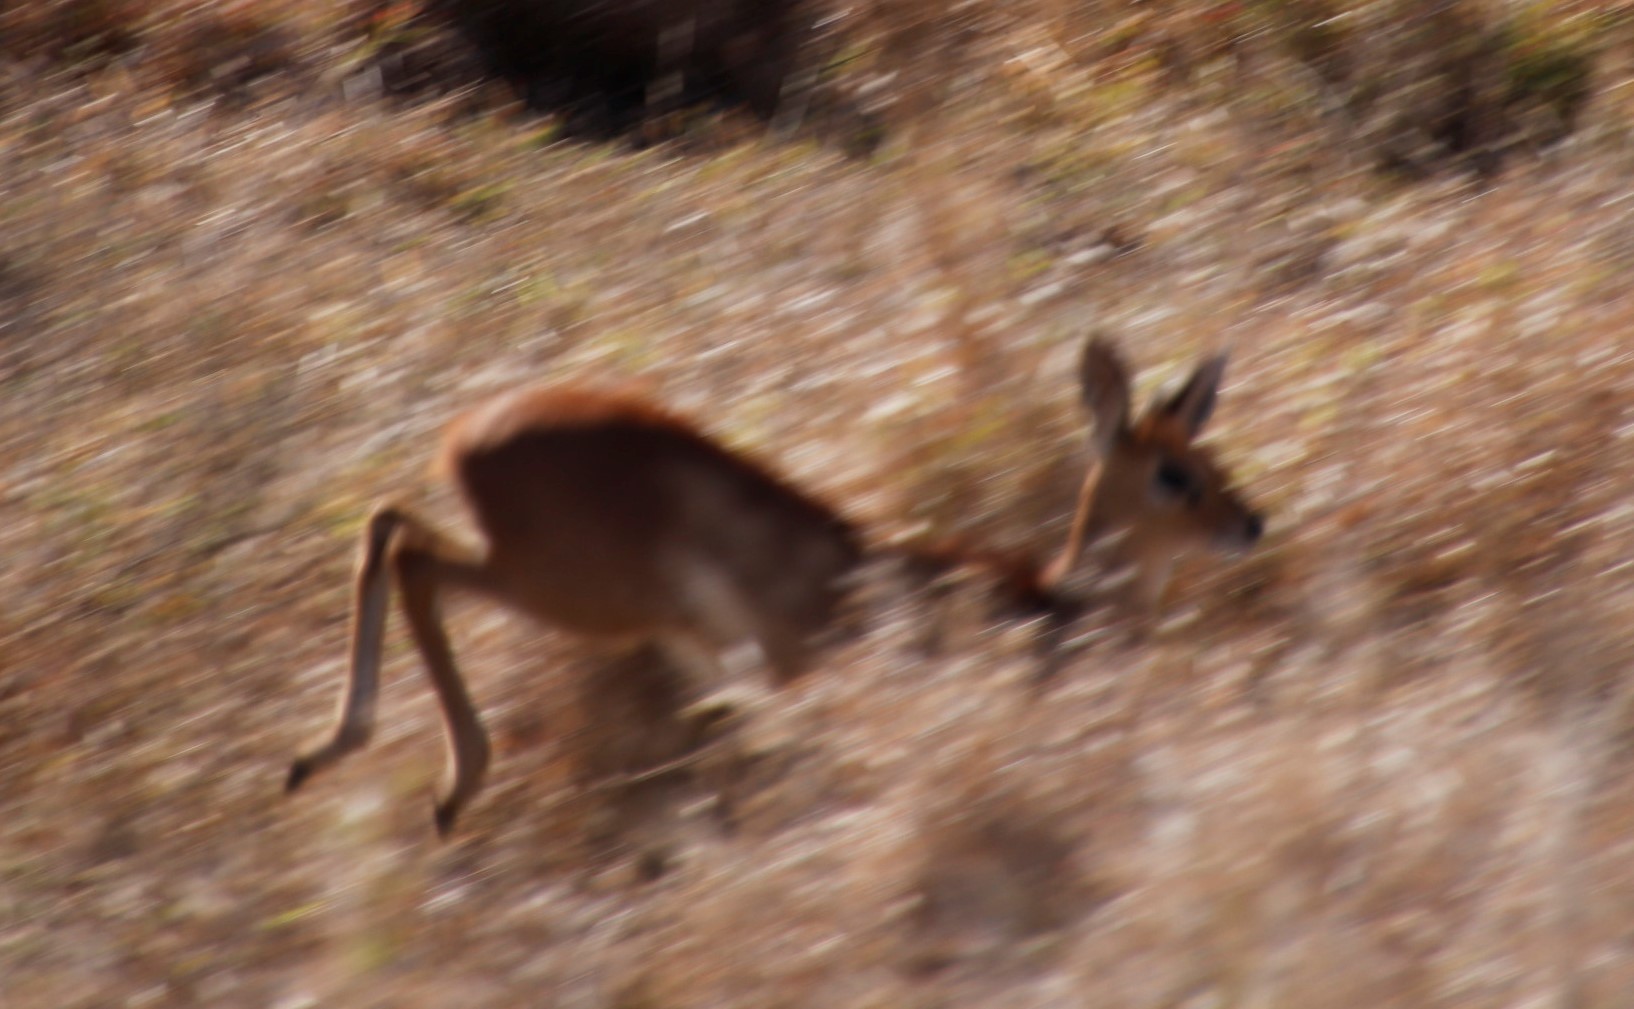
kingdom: Animalia
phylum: Chordata
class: Mammalia
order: Artiodactyla
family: Bovidae
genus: Raphicerus
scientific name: Raphicerus campestris
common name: Steenbok
